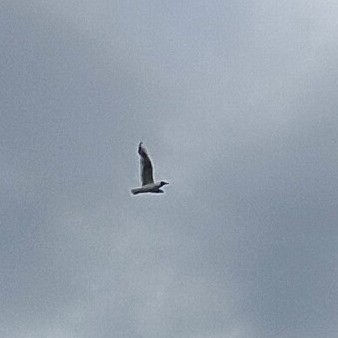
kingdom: Animalia
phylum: Chordata
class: Aves
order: Charadriiformes
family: Laridae
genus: Chroicocephalus
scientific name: Chroicocephalus ridibundus
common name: Black-headed gull
